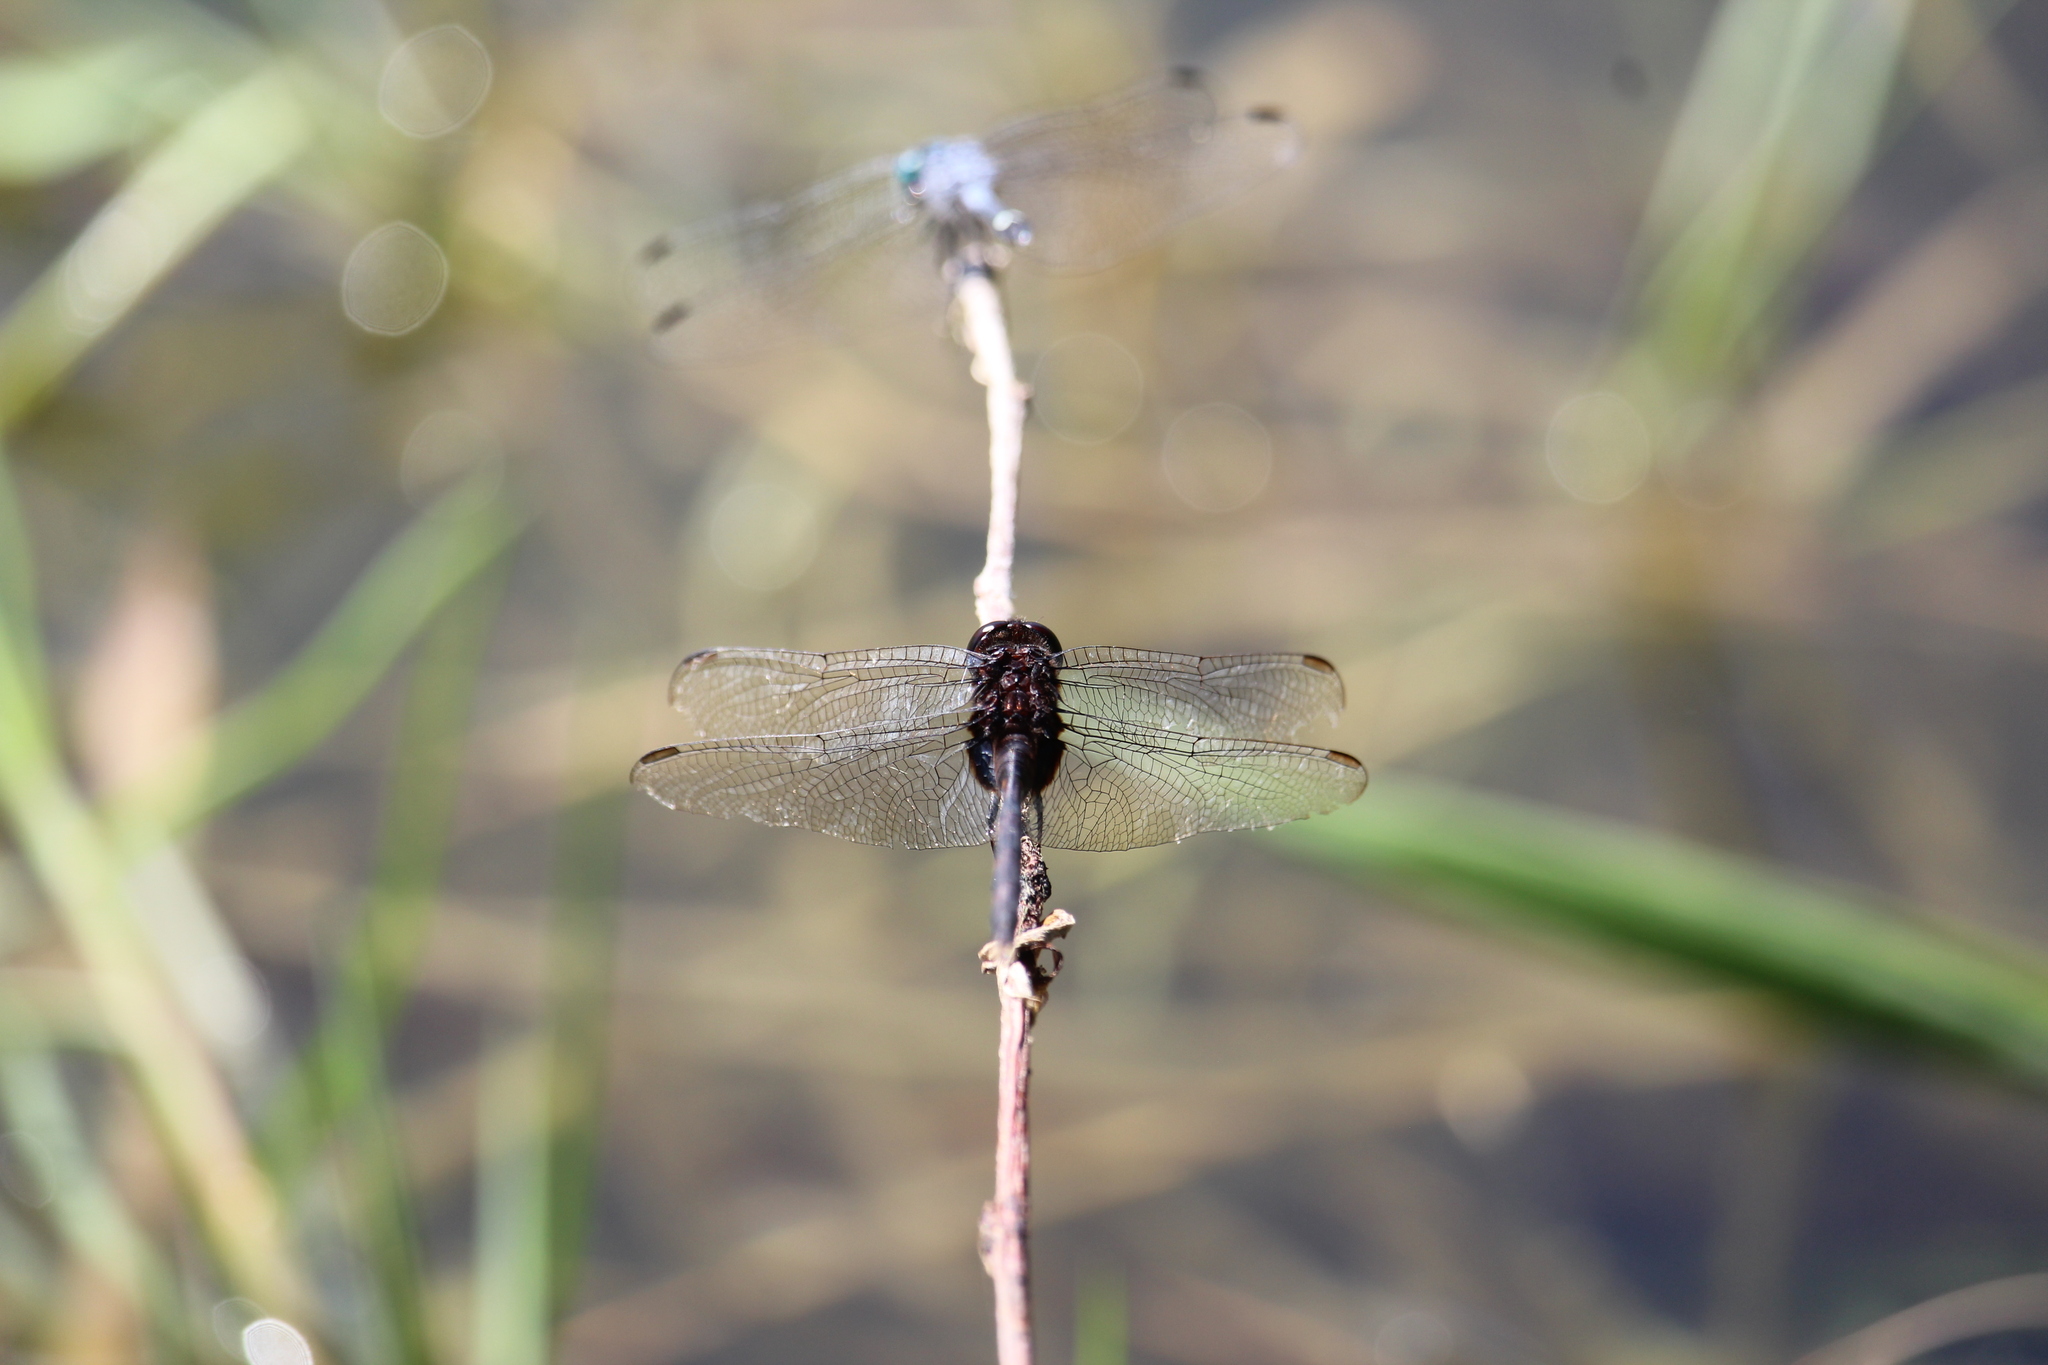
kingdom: Animalia
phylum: Arthropoda
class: Insecta
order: Odonata
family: Libellulidae
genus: Erythemis
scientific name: Erythemis plebeja
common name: Pin-tailed pondhawk
